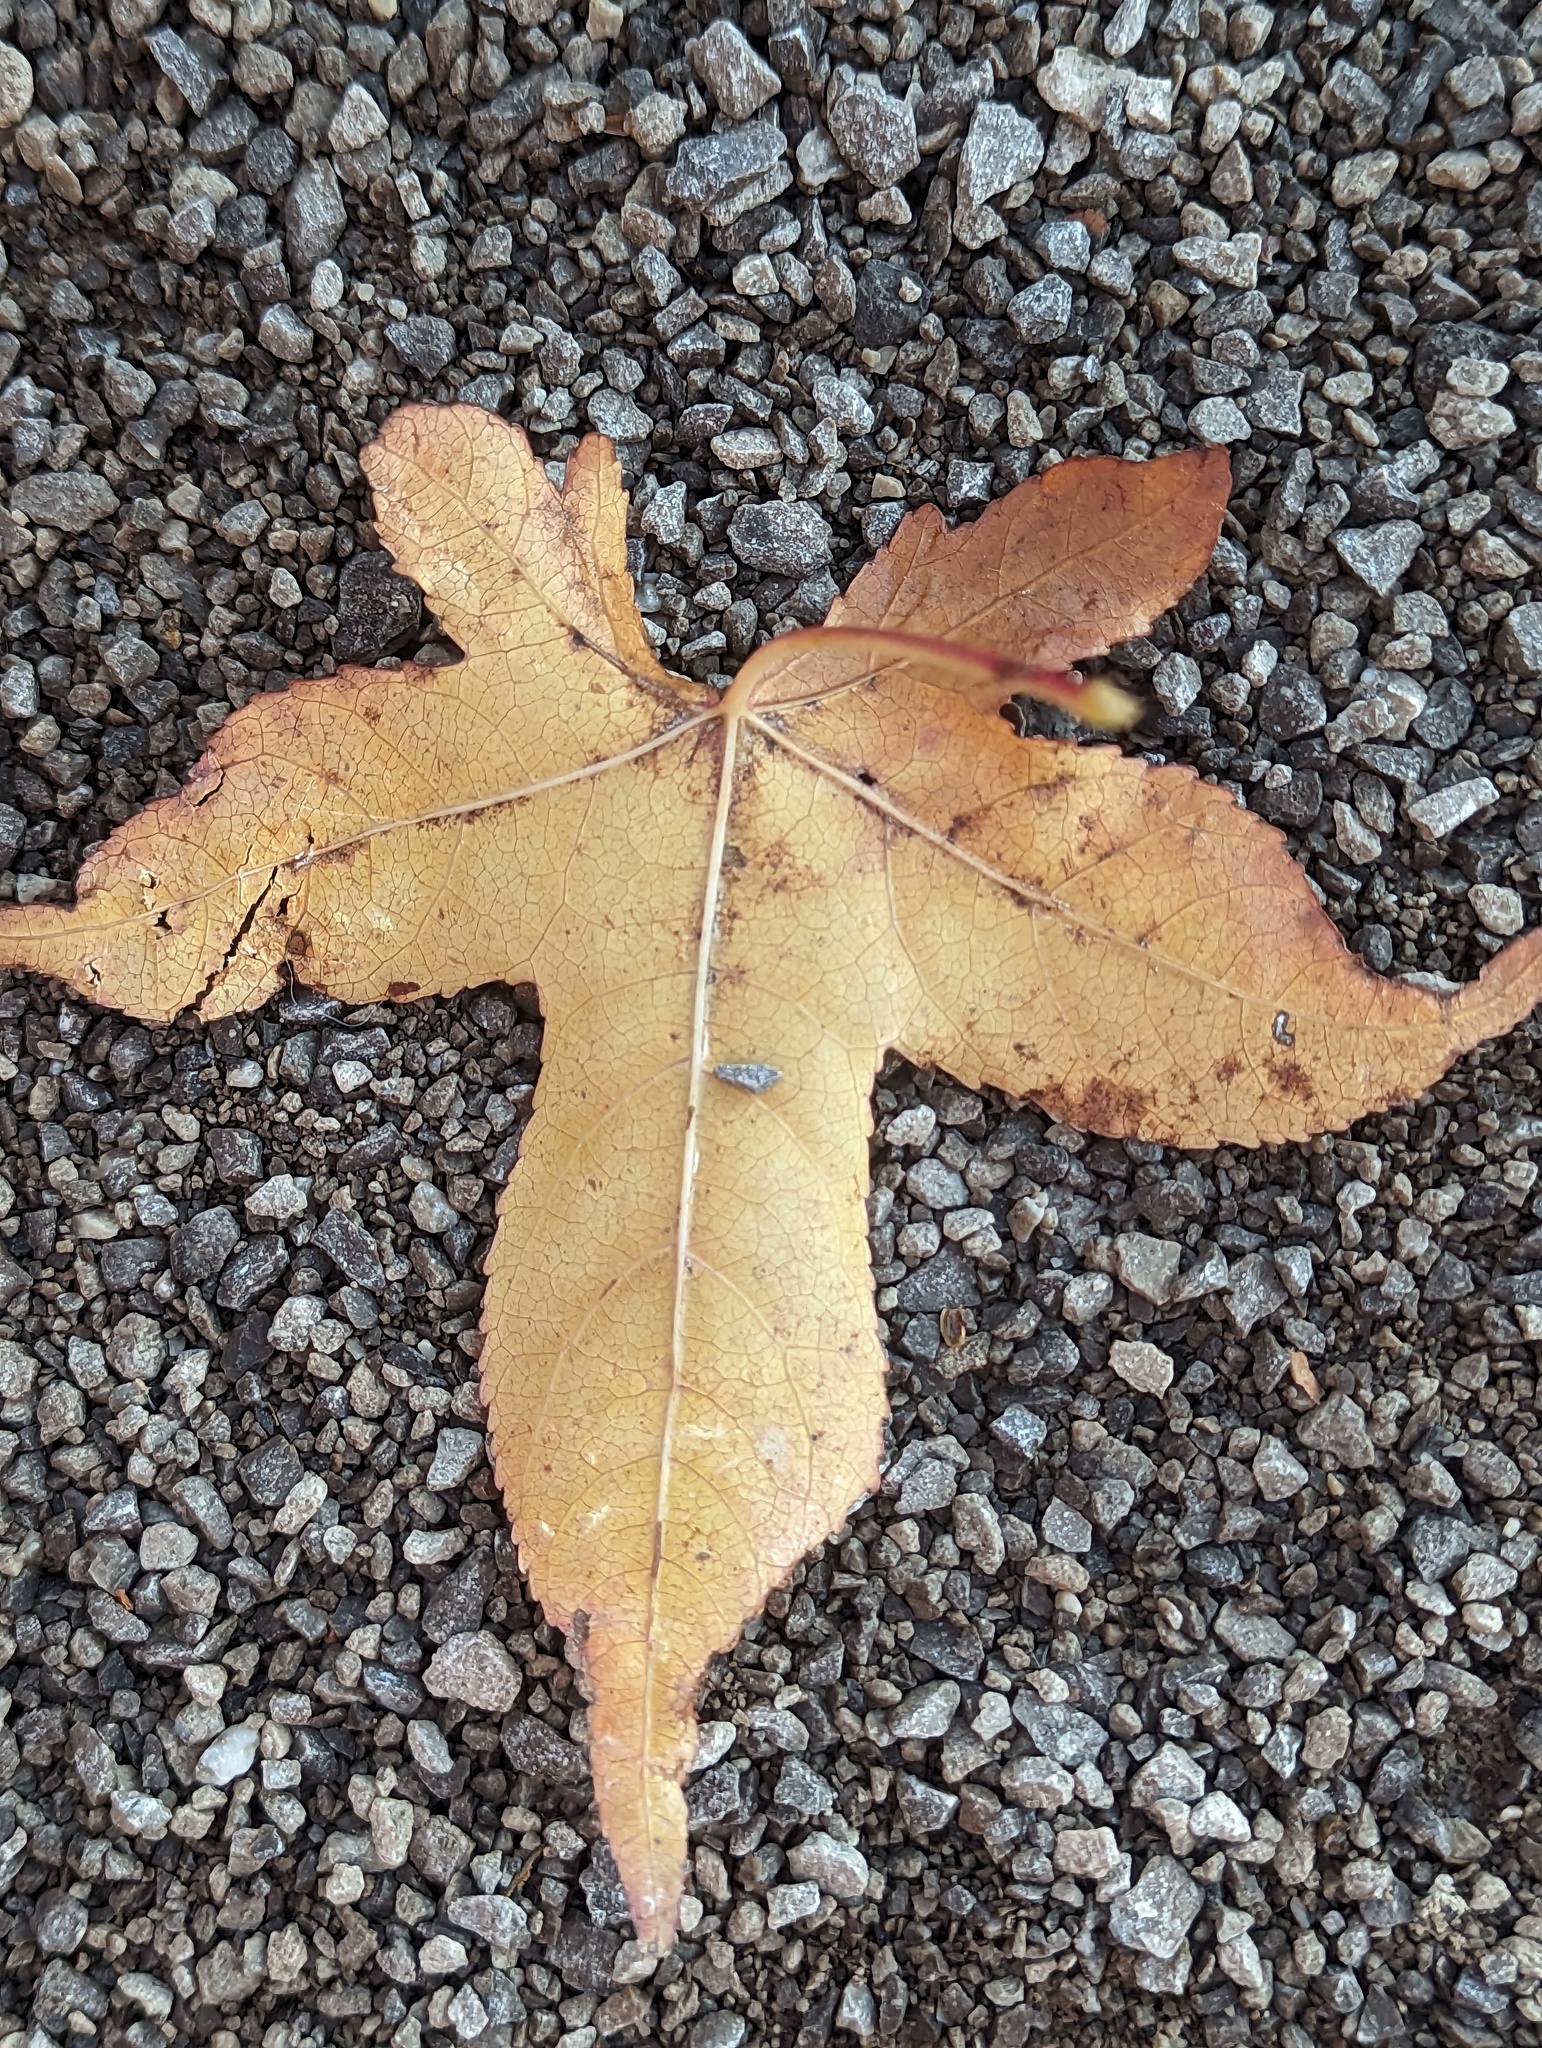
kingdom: Plantae
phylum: Tracheophyta
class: Magnoliopsida
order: Saxifragales
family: Altingiaceae
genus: Liquidambar
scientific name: Liquidambar styraciflua
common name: Sweet gum
